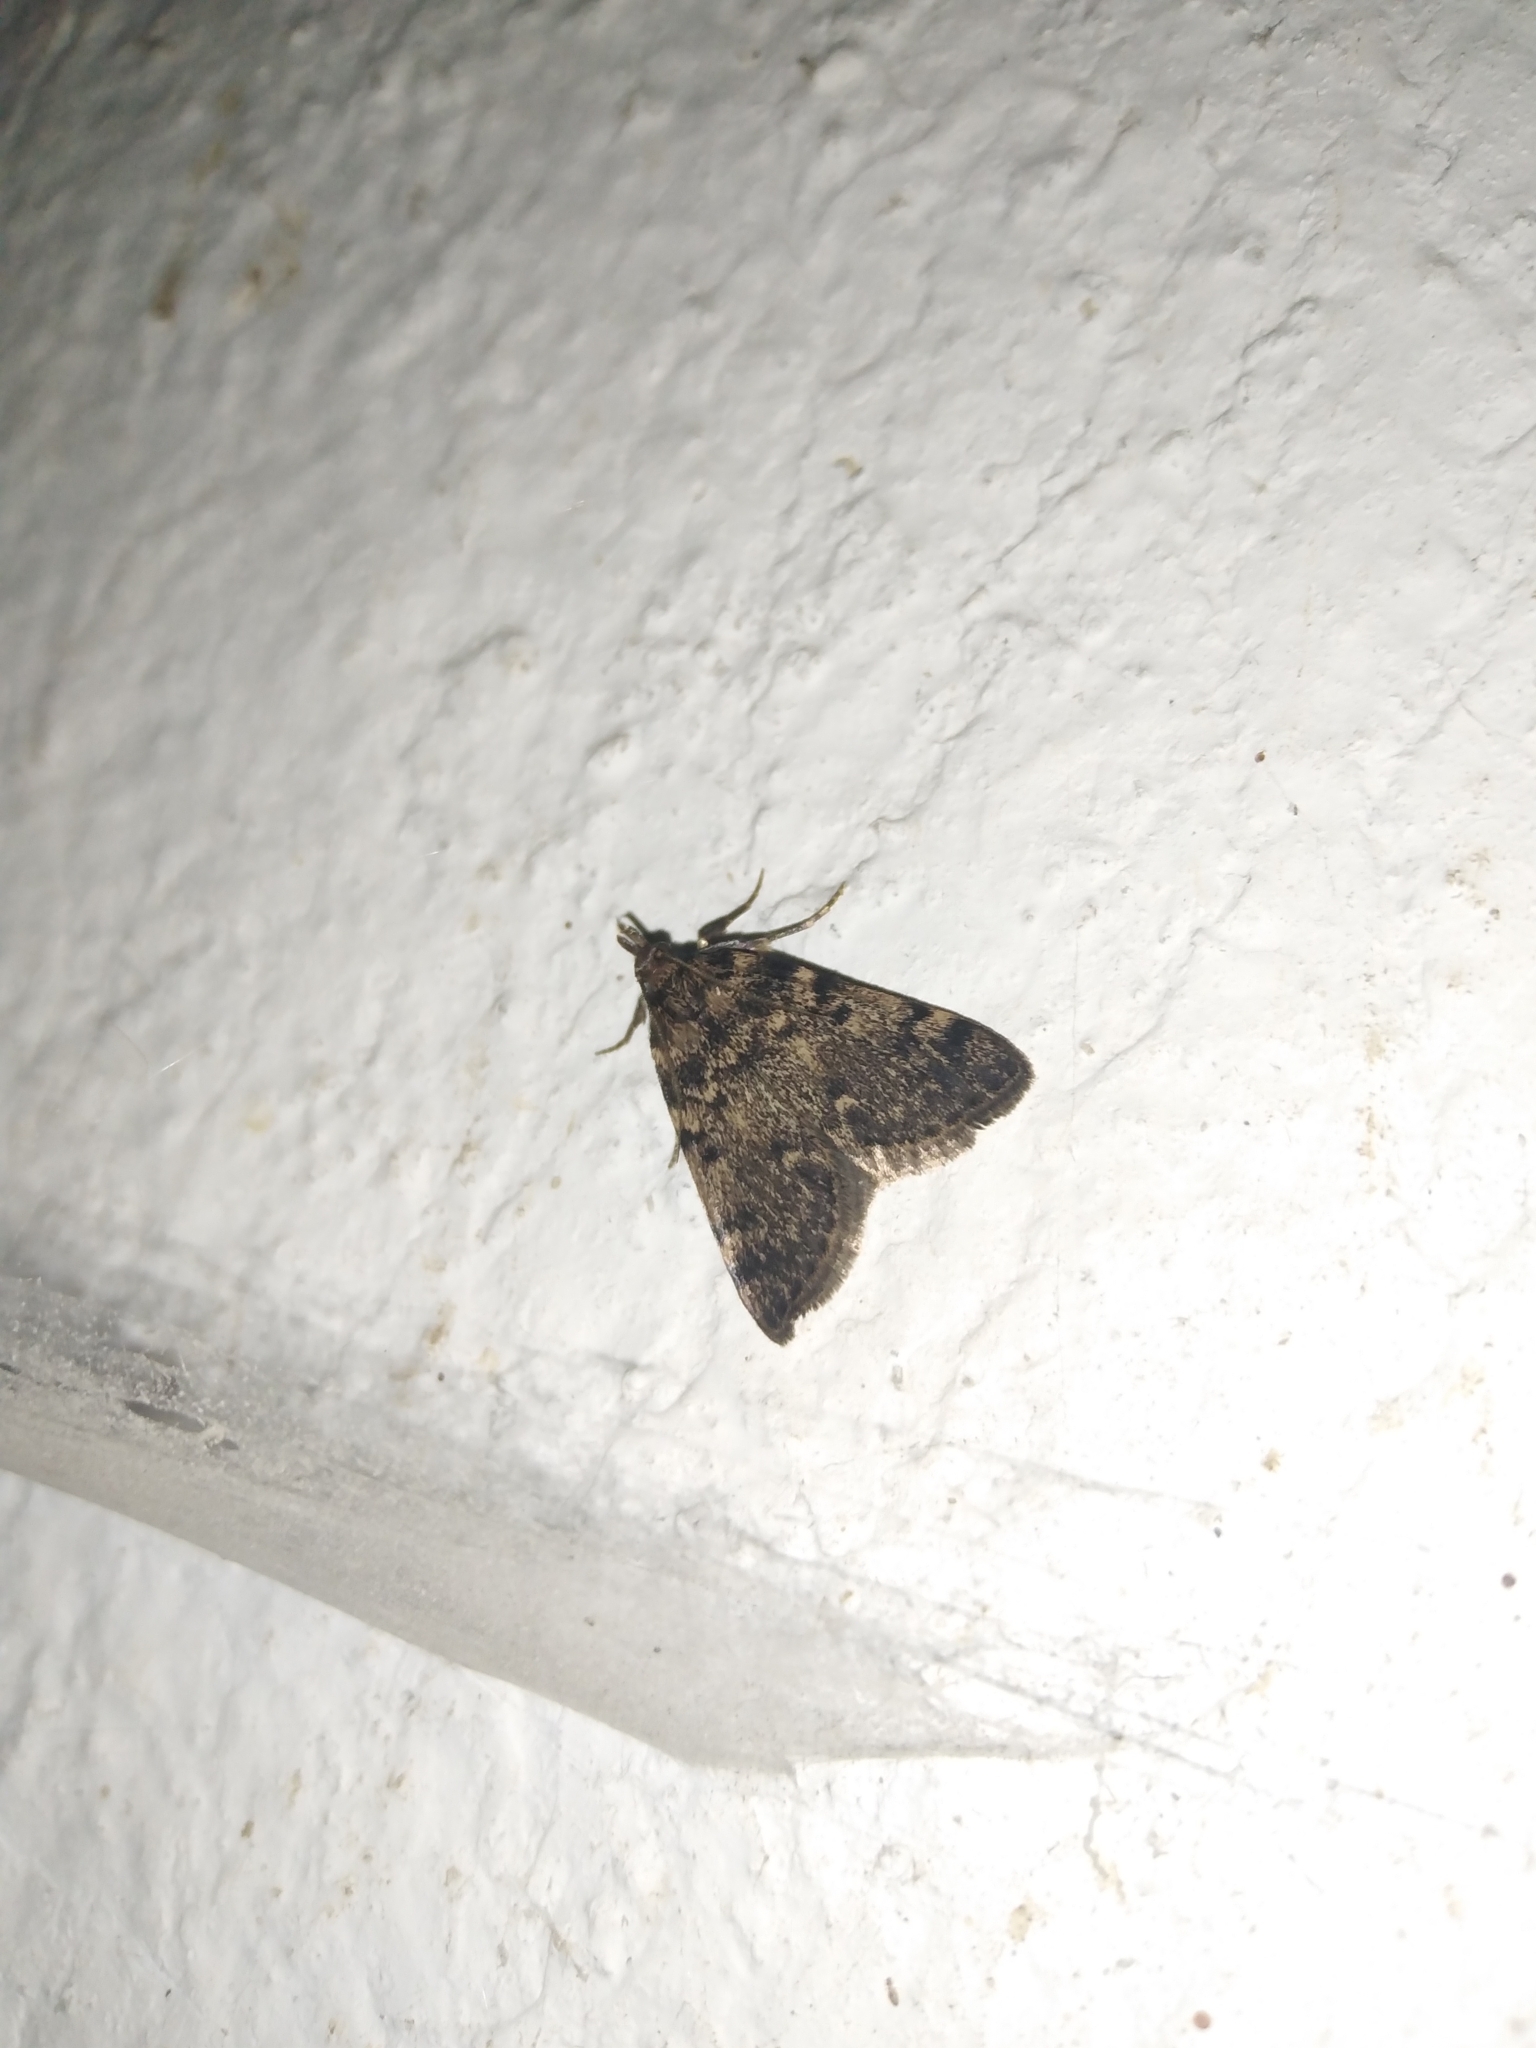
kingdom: Animalia
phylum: Arthropoda
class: Insecta
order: Lepidoptera
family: Pyralidae
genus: Aglossa
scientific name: Aglossa pinguinalis
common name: Large tabby
